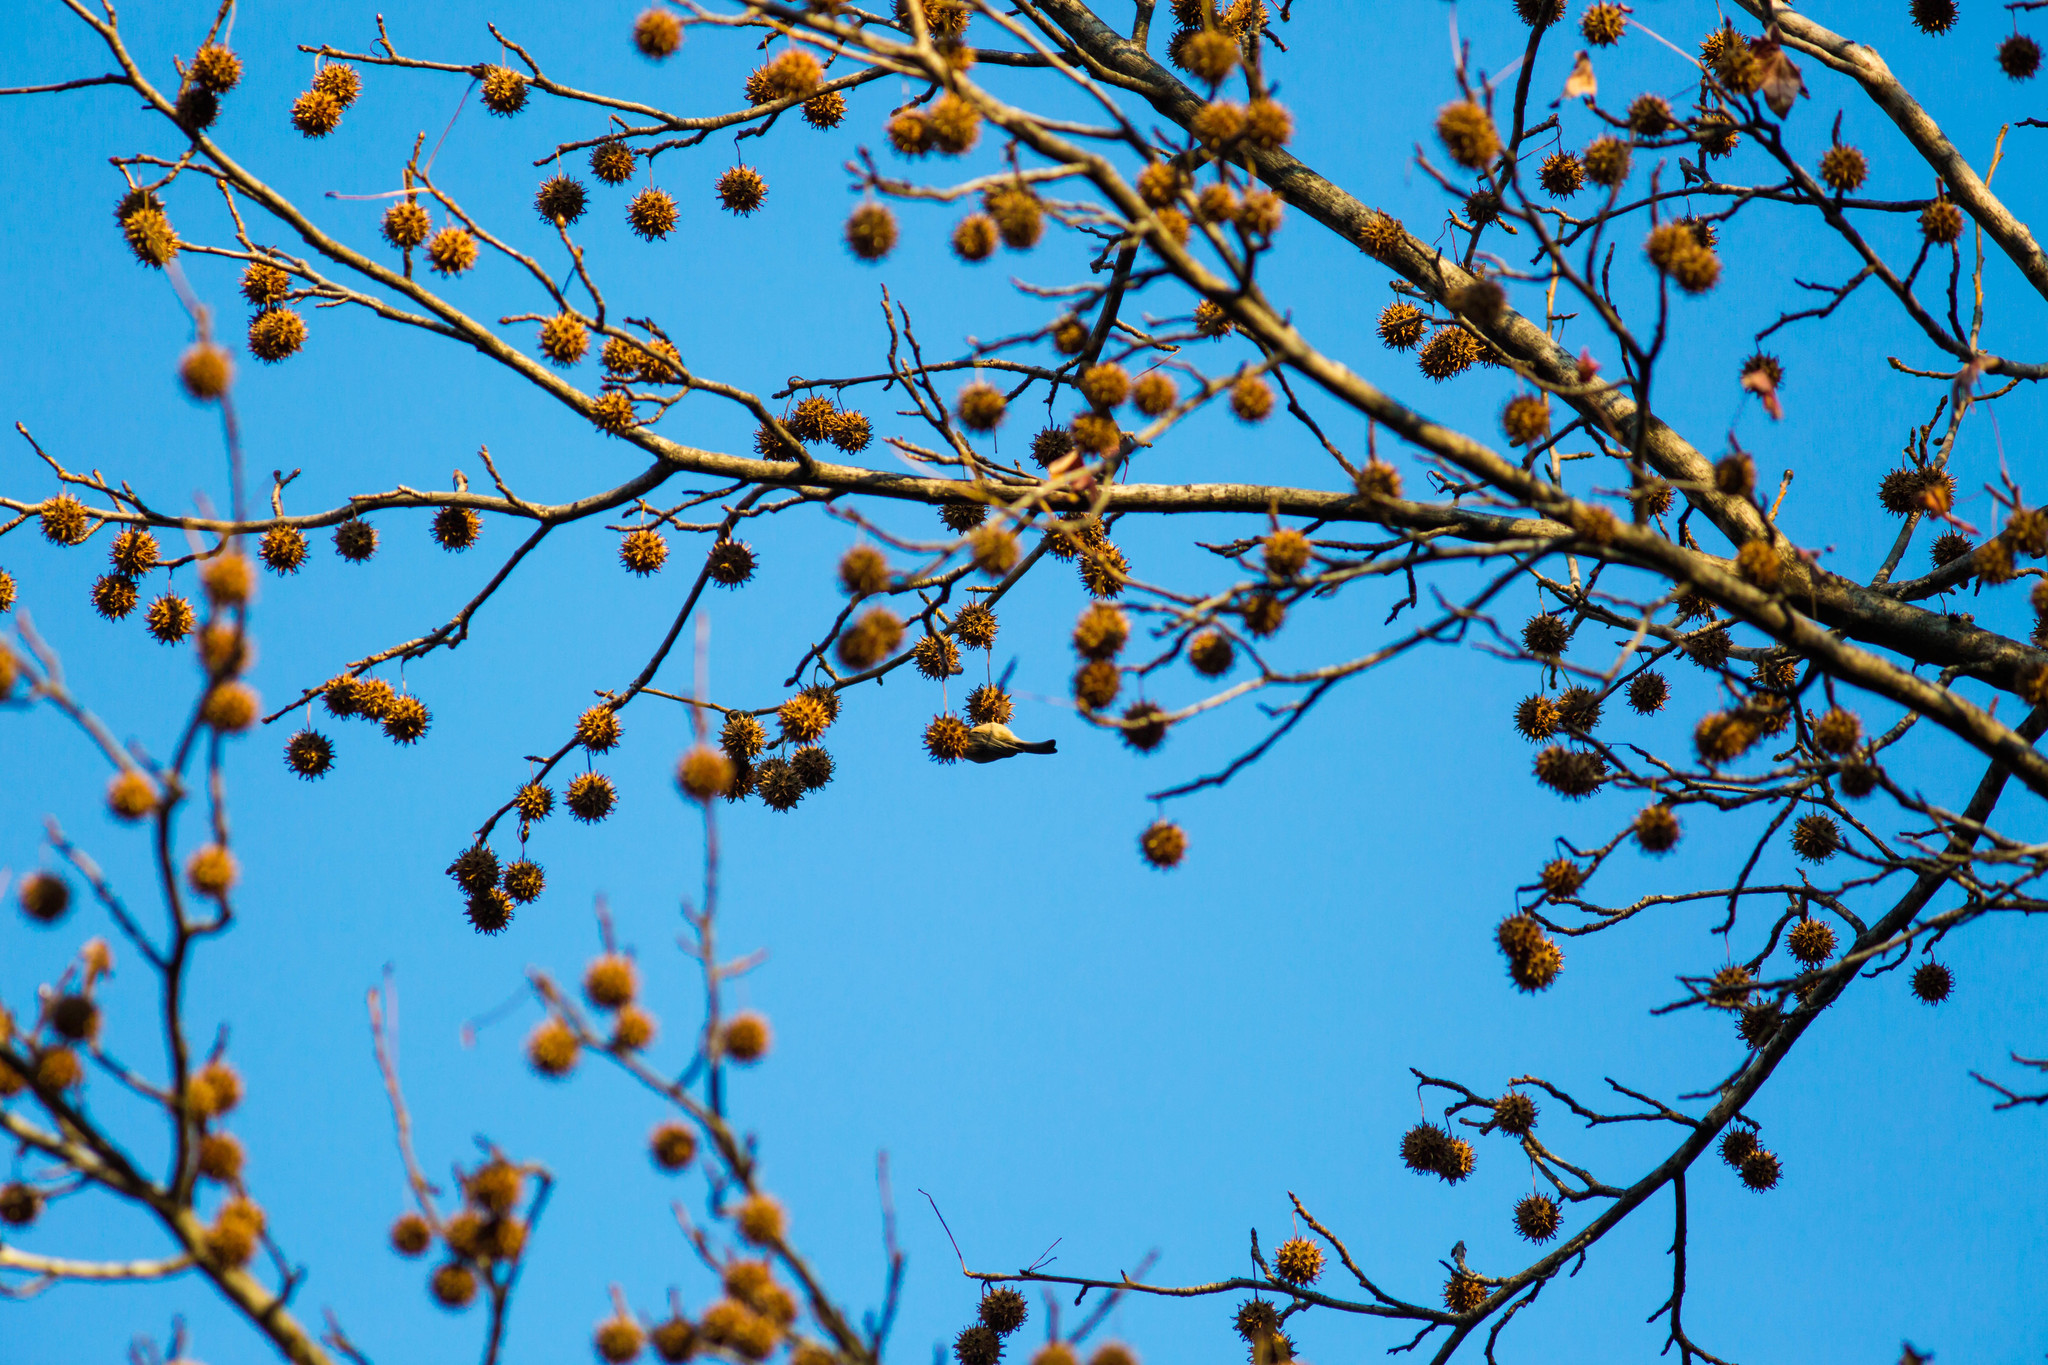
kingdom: Plantae
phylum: Tracheophyta
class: Magnoliopsida
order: Saxifragales
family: Altingiaceae
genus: Liquidambar
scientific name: Liquidambar styraciflua
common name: Sweet gum
